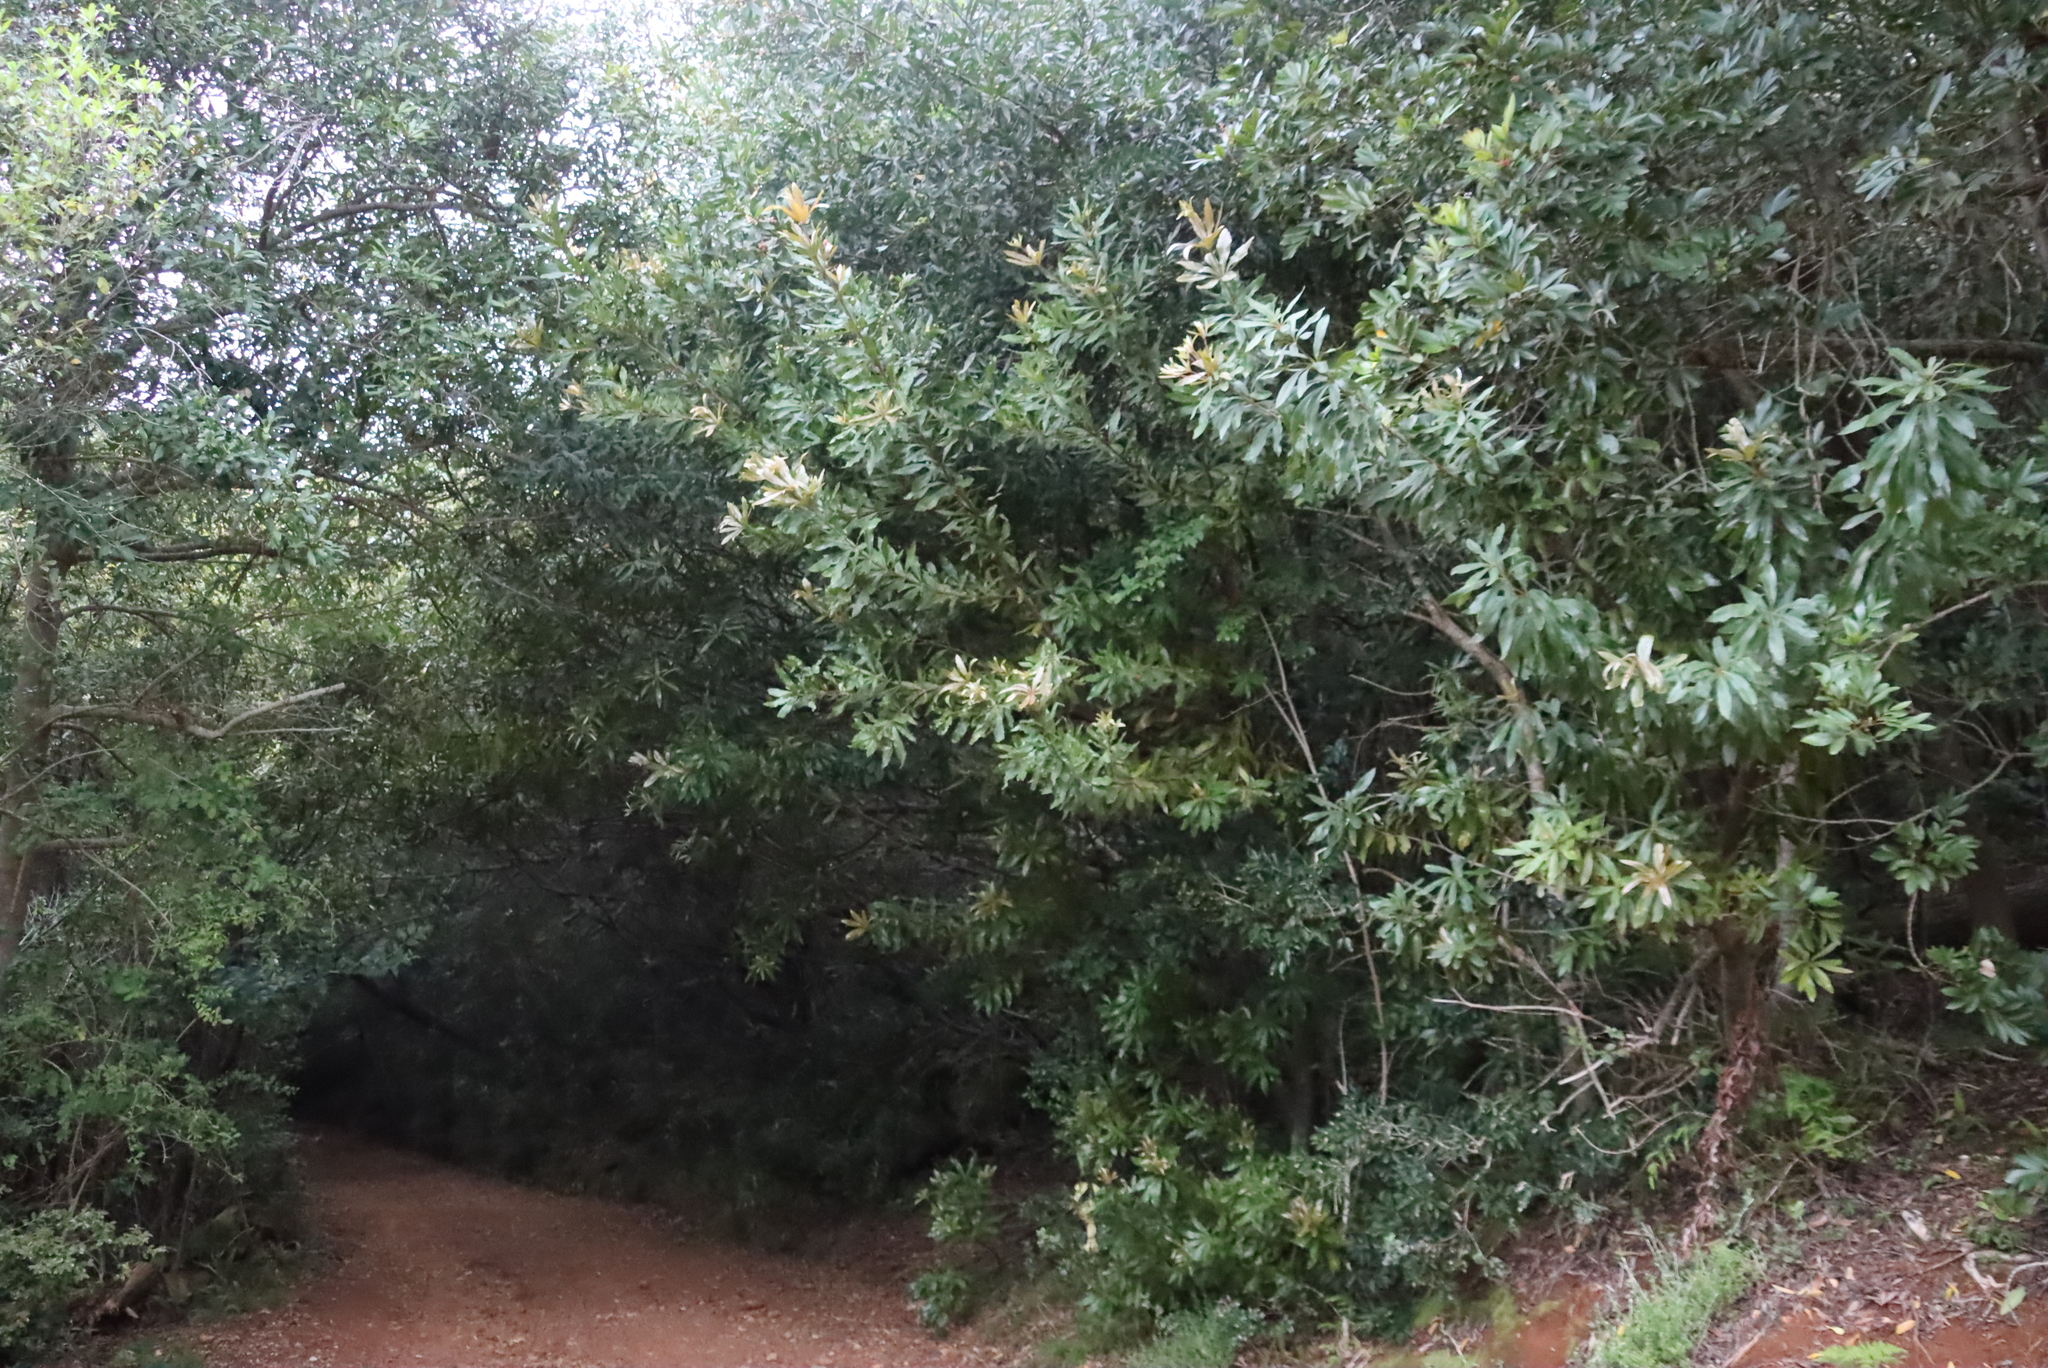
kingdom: Plantae
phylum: Tracheophyta
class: Magnoliopsida
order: Proteales
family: Proteaceae
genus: Brabejum
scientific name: Brabejum stellatifolium
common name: Wild almond
